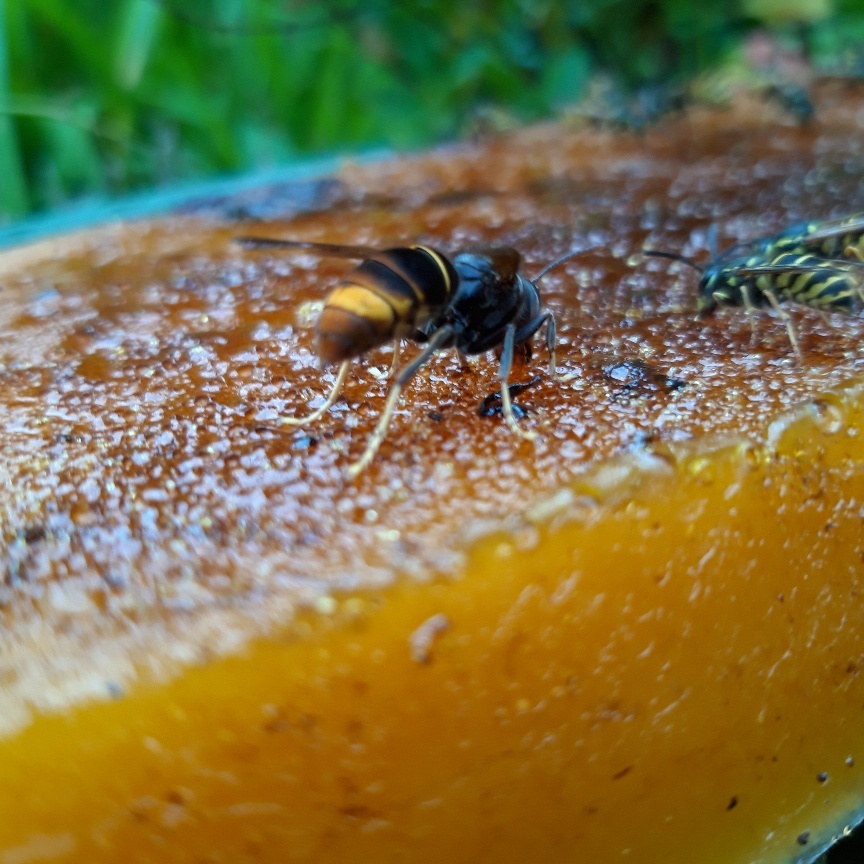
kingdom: Animalia
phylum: Arthropoda
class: Insecta
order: Hymenoptera
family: Vespidae
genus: Vespa
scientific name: Vespa velutina
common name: Asian hornet
